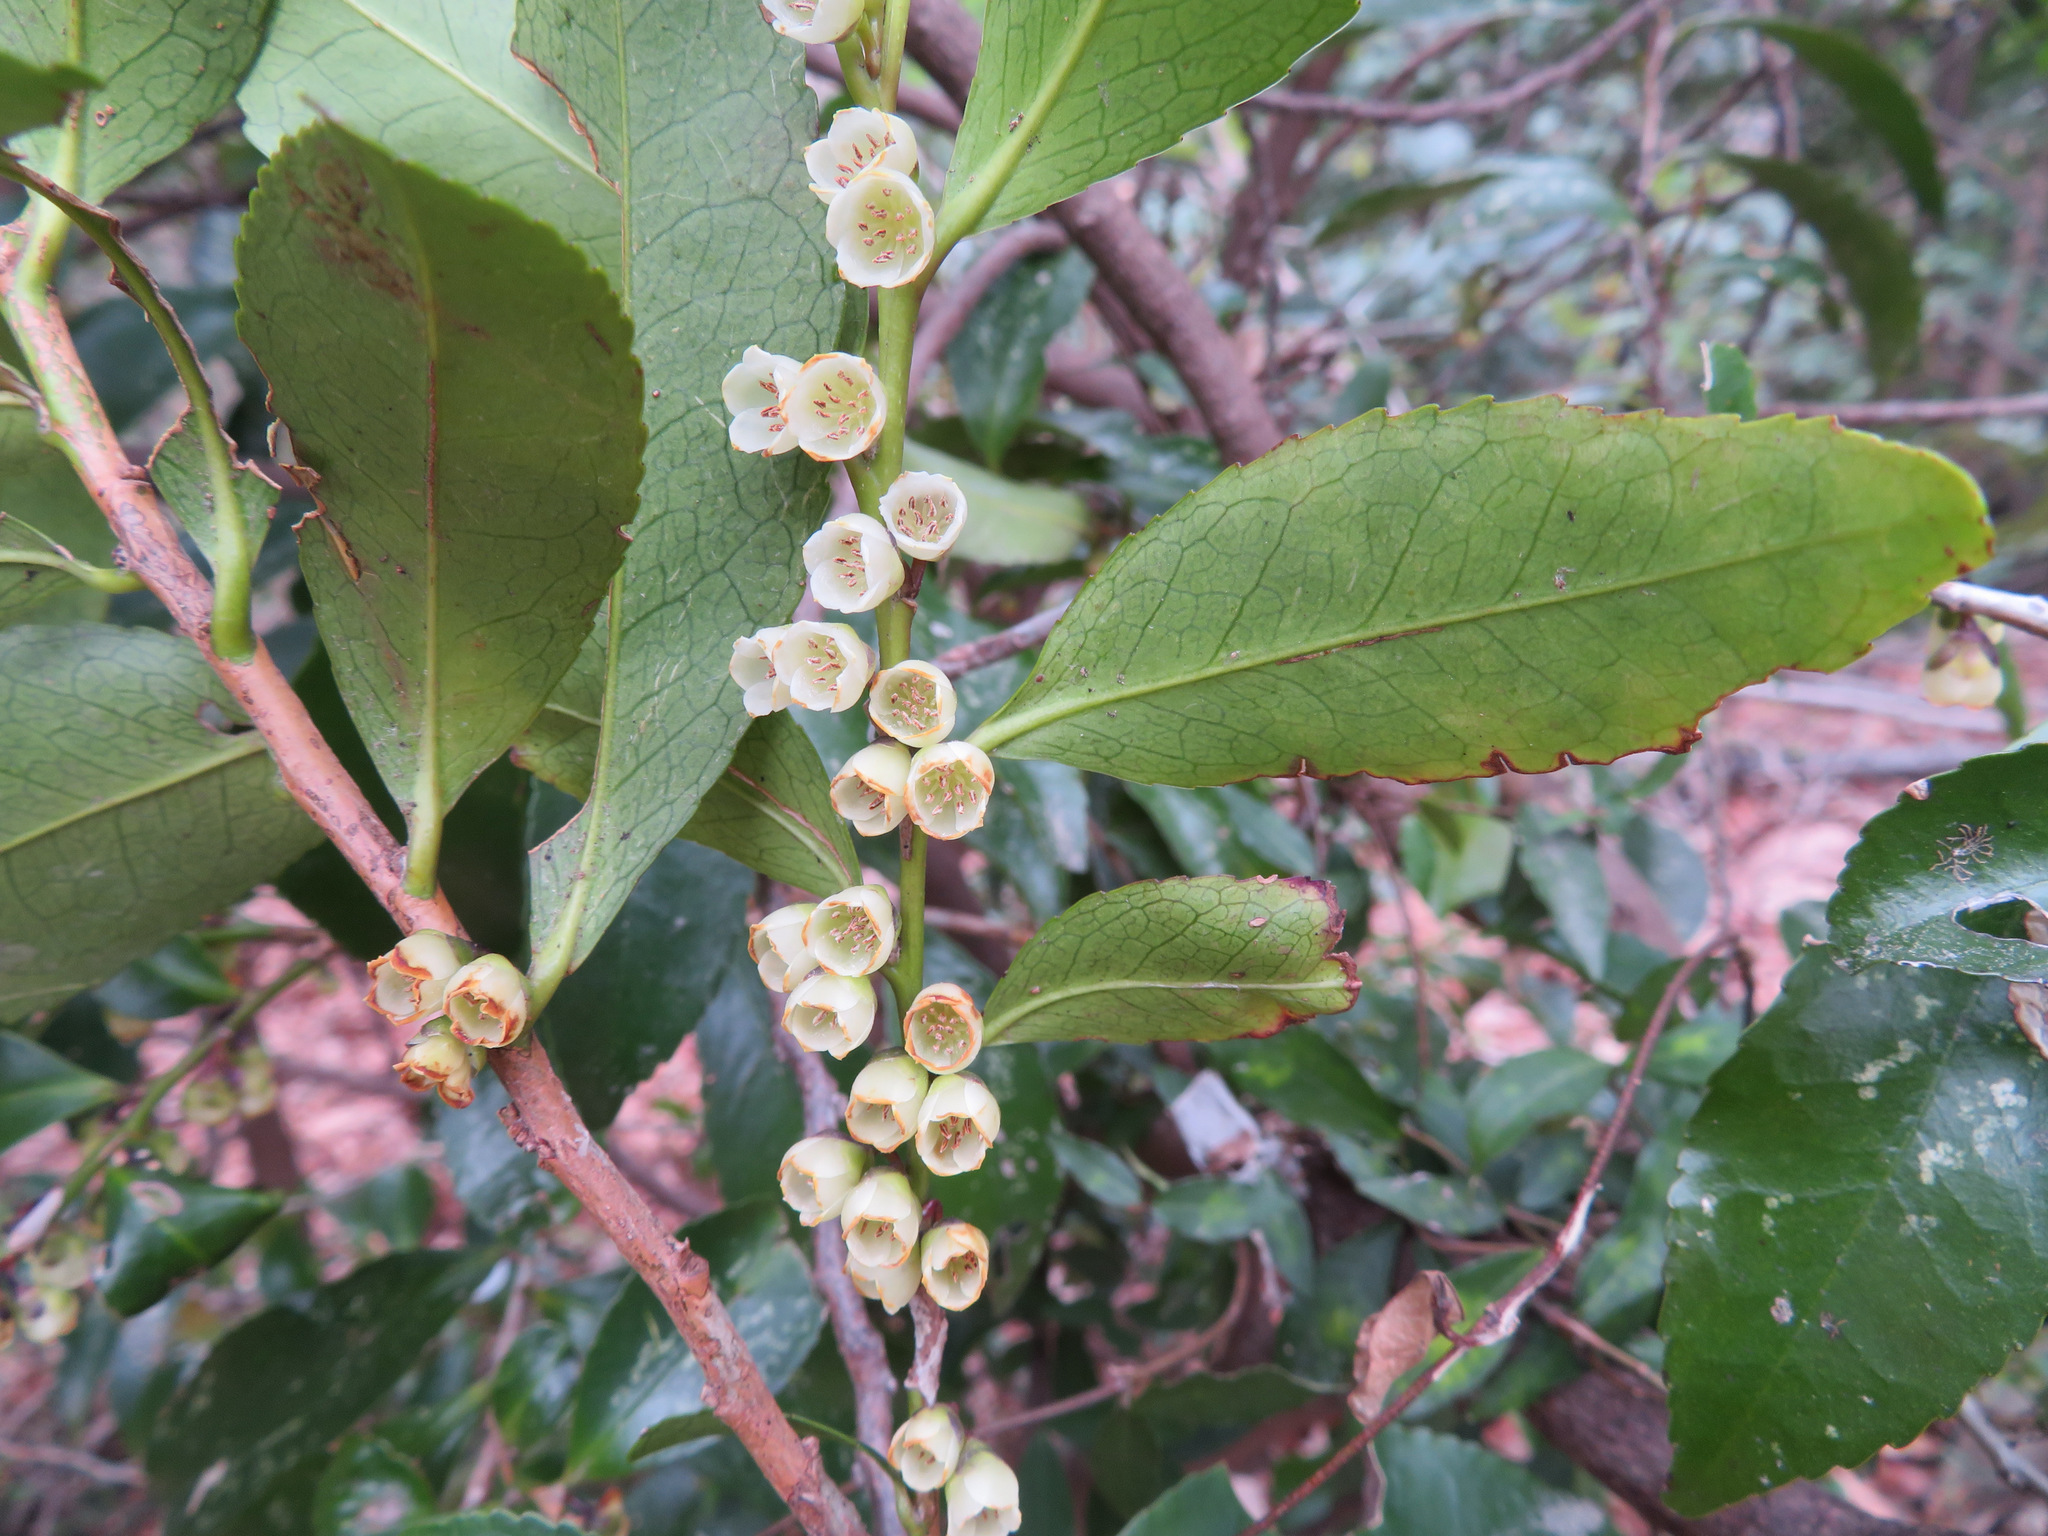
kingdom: Plantae
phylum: Tracheophyta
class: Magnoliopsida
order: Ericales
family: Pentaphylacaceae
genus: Eurya
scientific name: Eurya japonica
